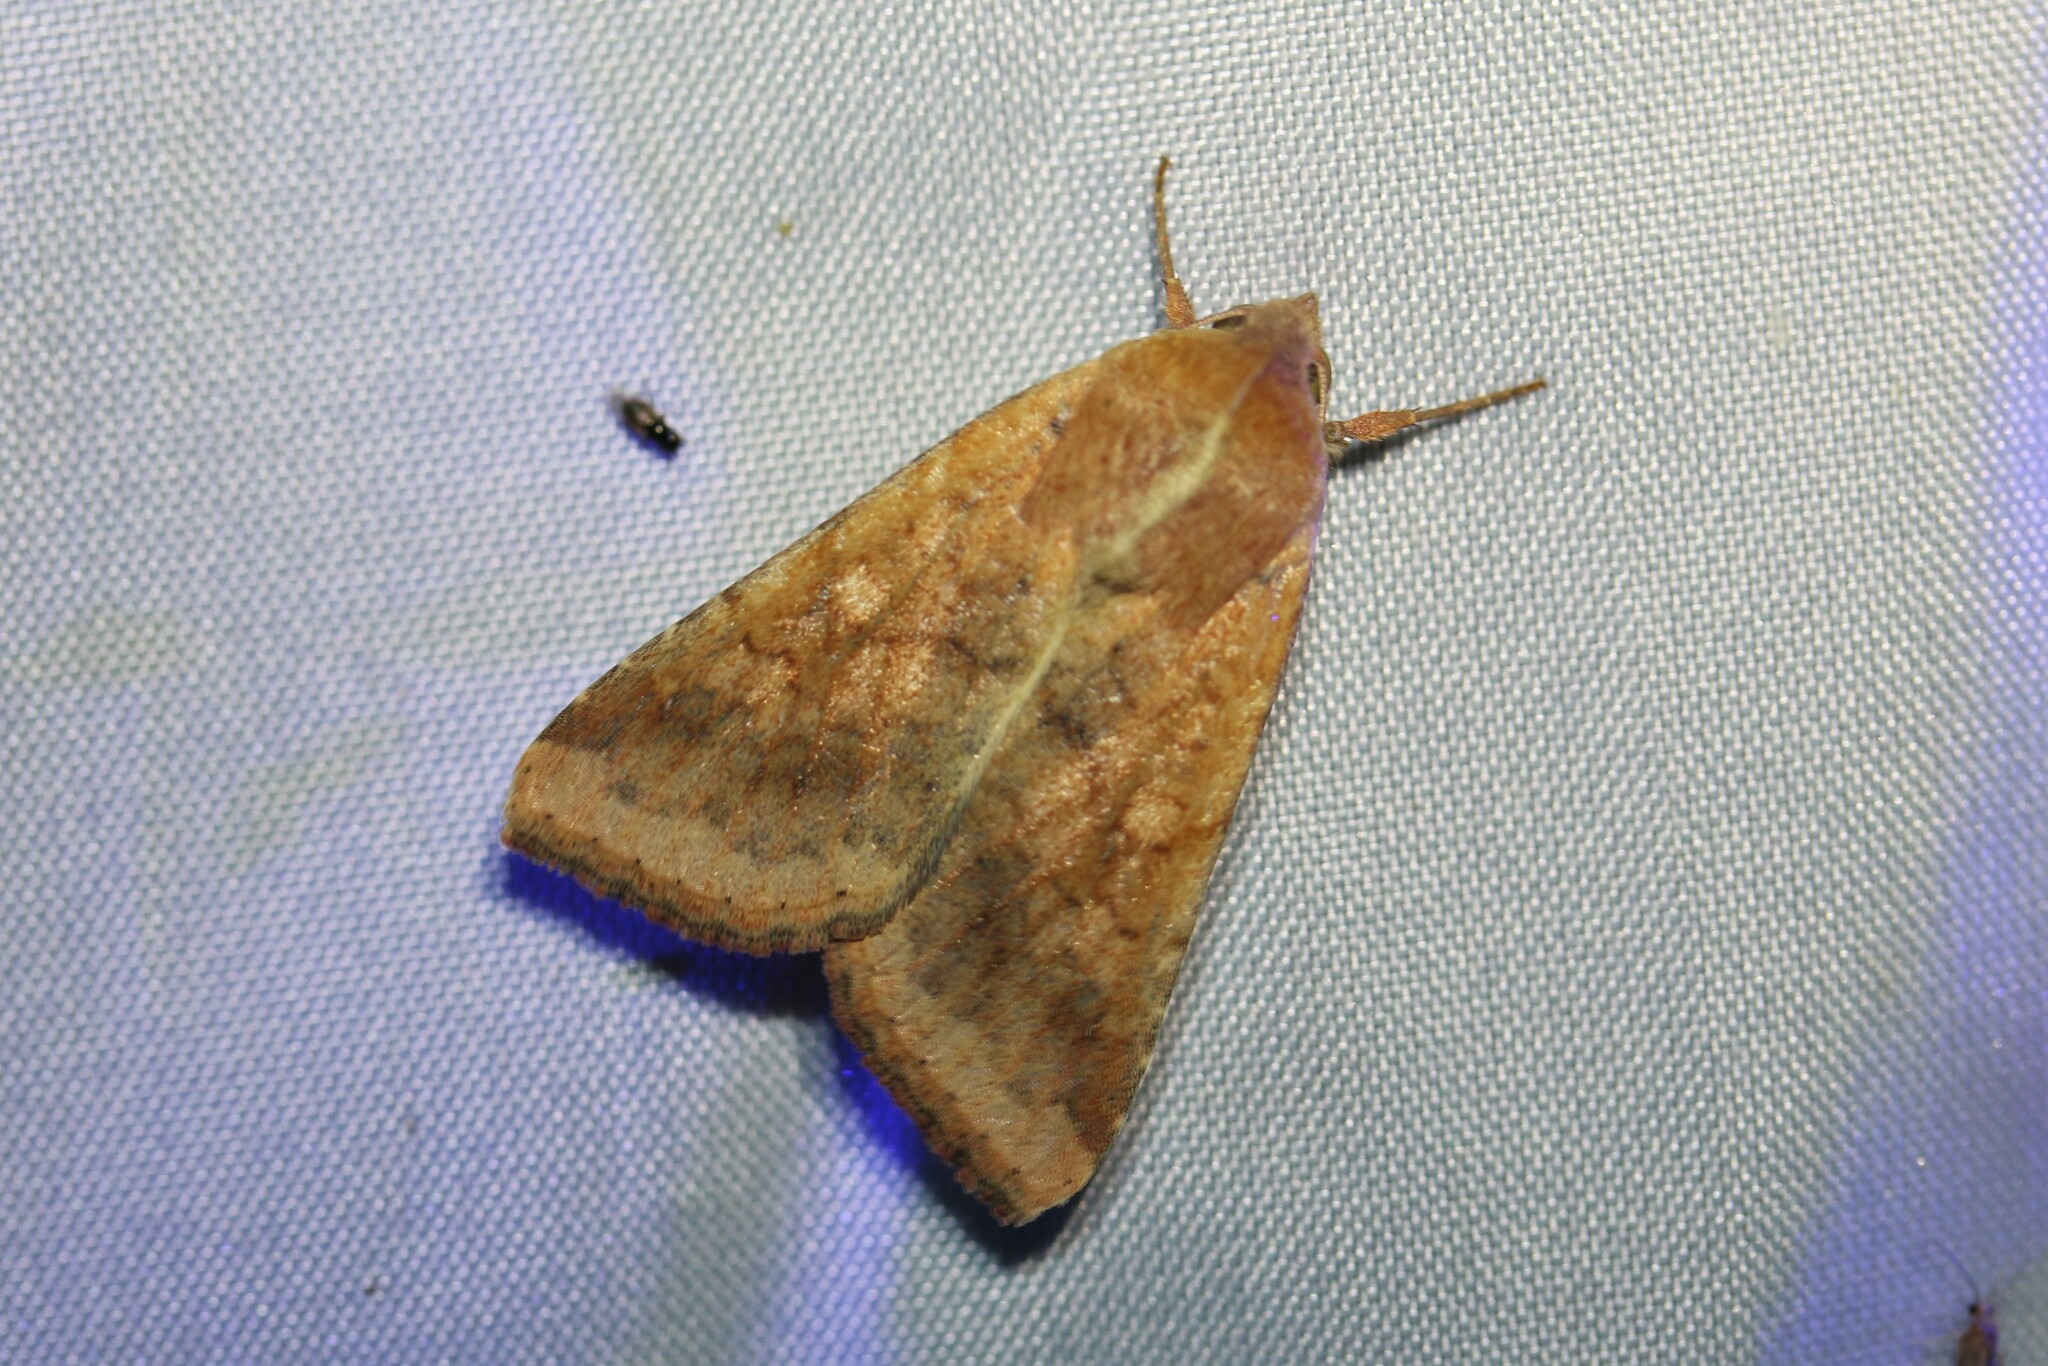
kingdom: Animalia
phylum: Arthropoda
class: Insecta
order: Lepidoptera
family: Noctuidae
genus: Helicoverpa
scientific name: Helicoverpa armigera
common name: Cotton bollworm
